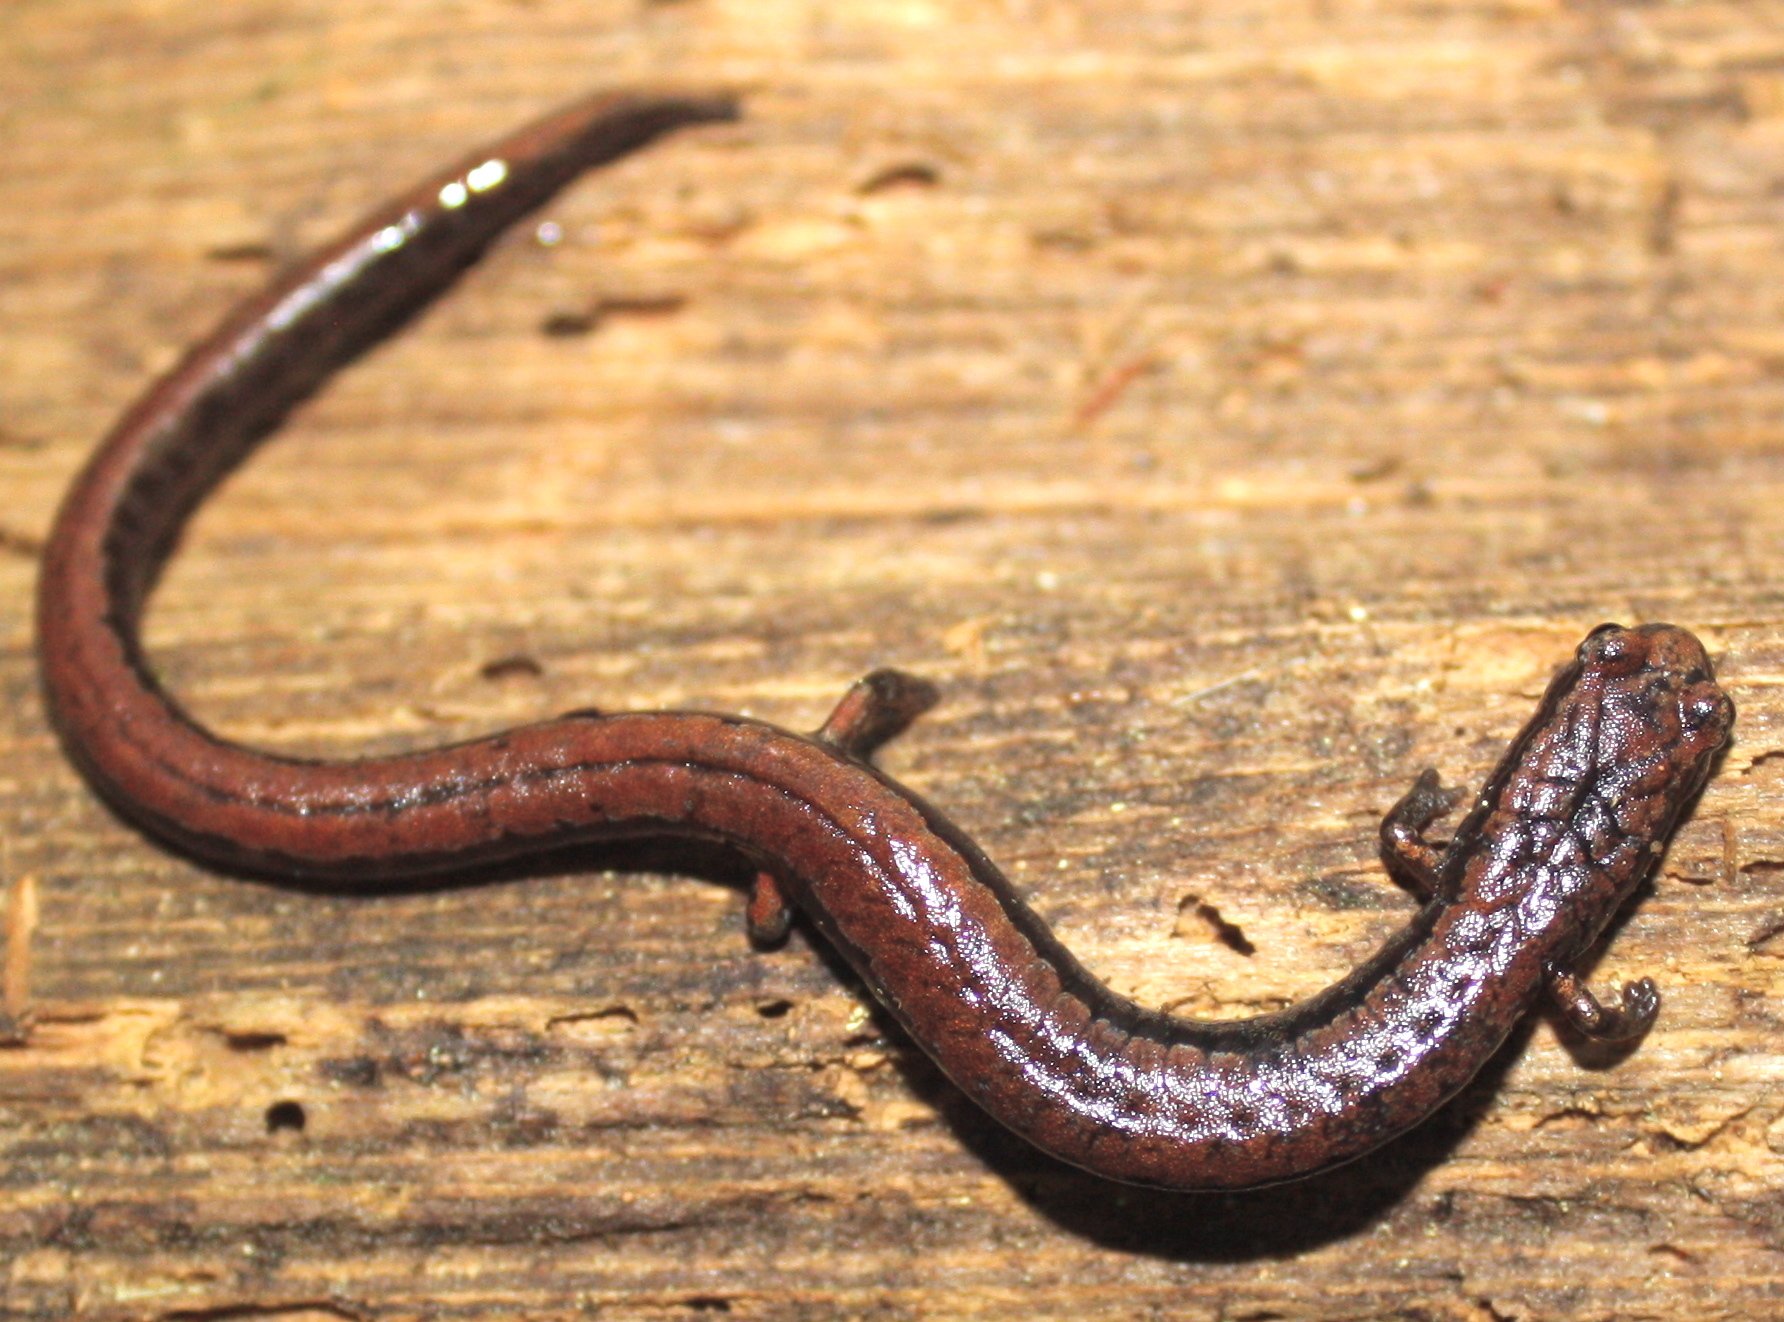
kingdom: Animalia
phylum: Chordata
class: Amphibia
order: Caudata
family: Plethodontidae
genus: Batrachoseps
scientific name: Batrachoseps attenuatus
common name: California slender salamander
